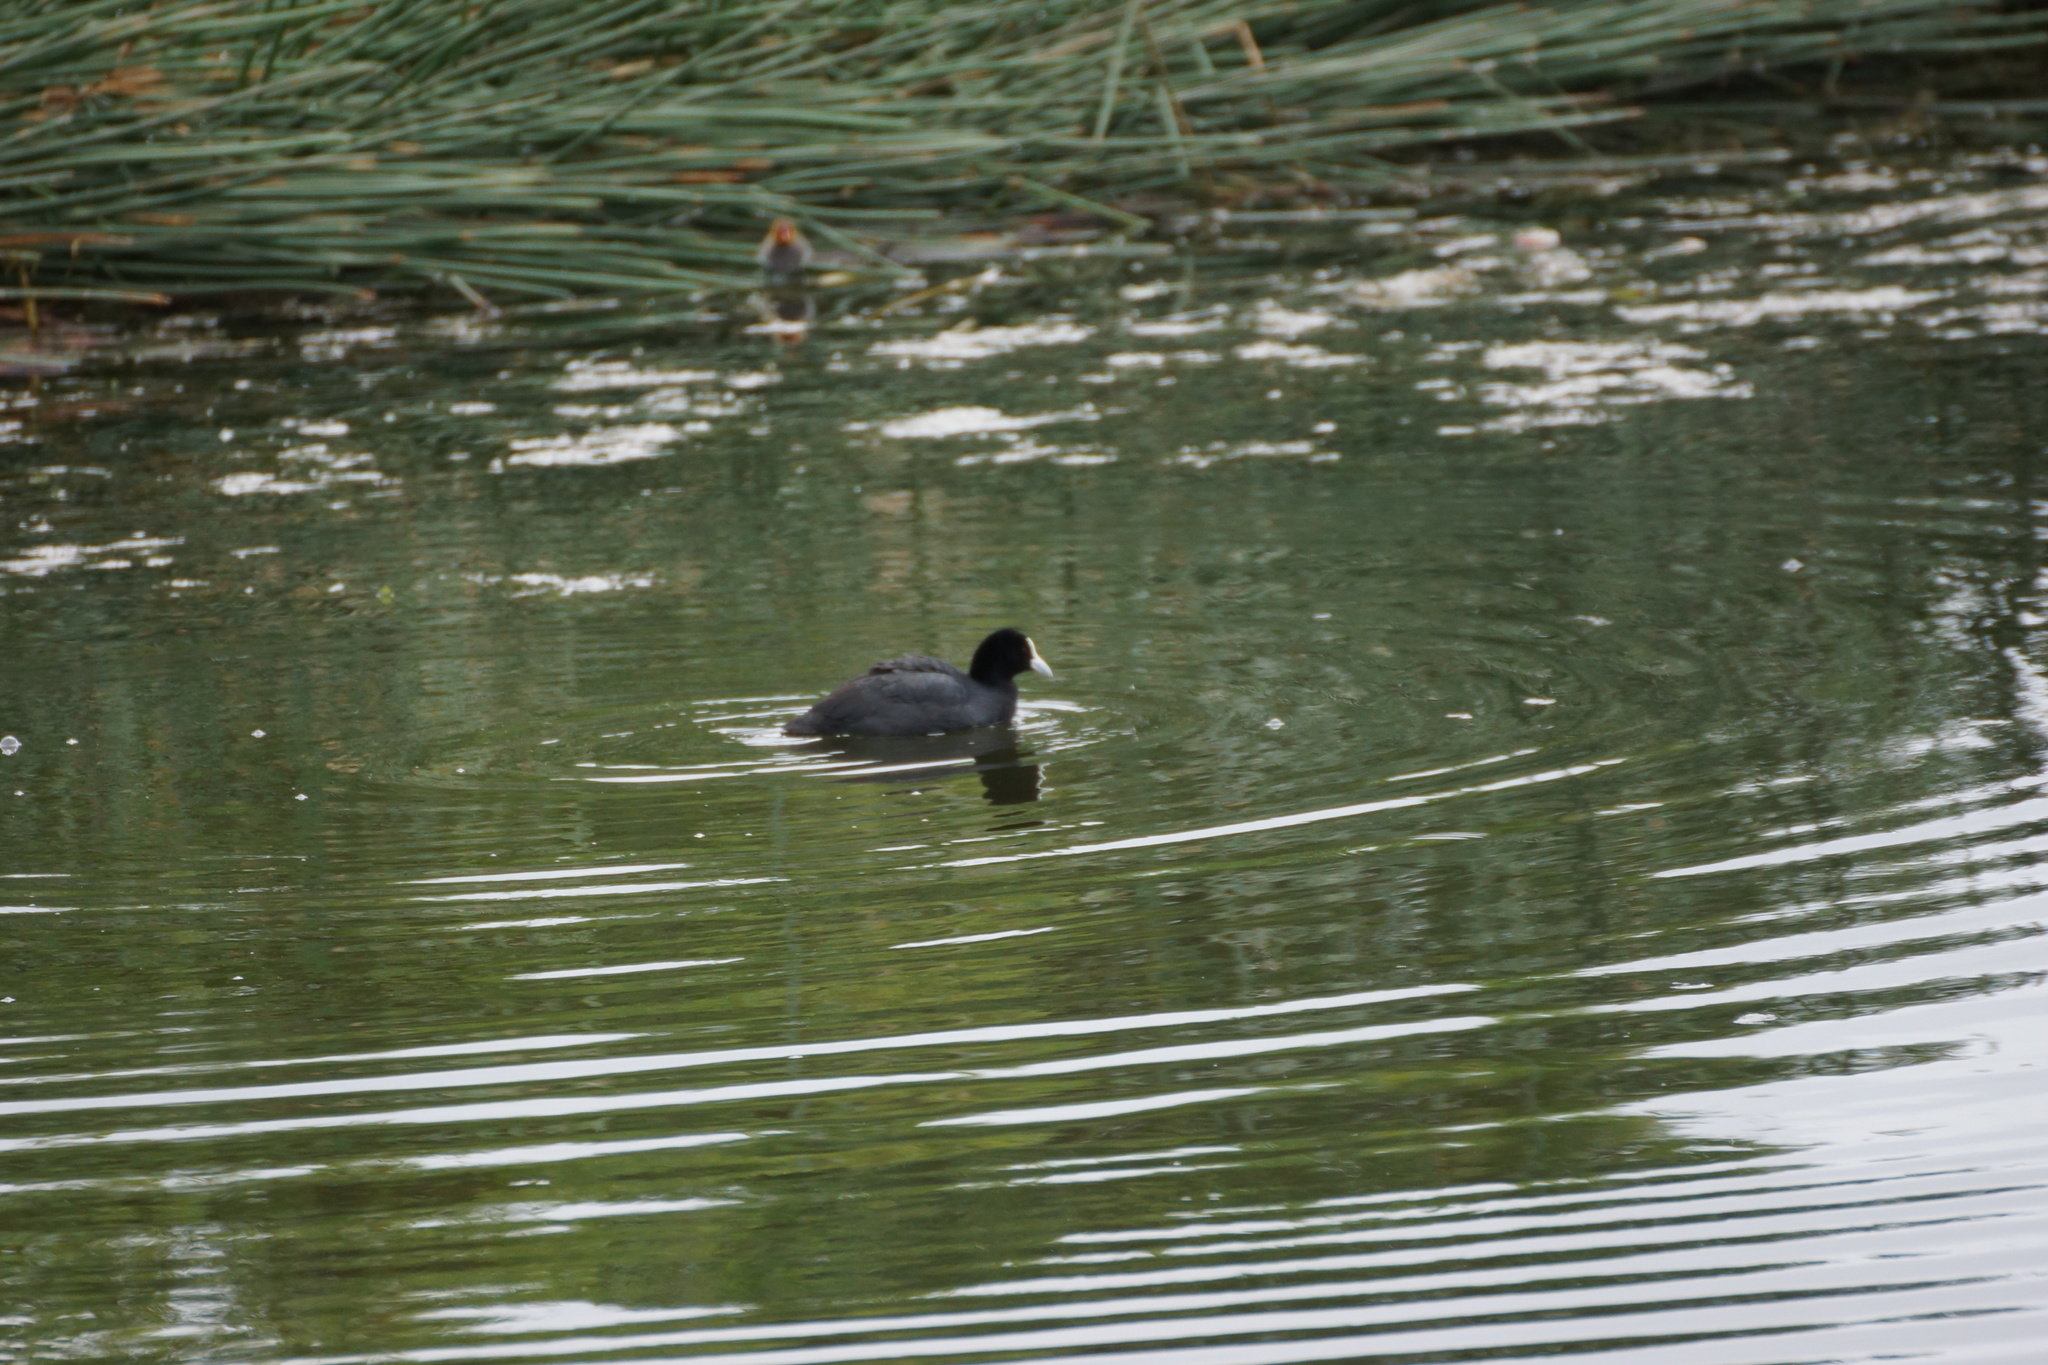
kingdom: Animalia
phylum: Chordata
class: Aves
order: Gruiformes
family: Rallidae
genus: Fulica
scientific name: Fulica atra
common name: Eurasian coot
